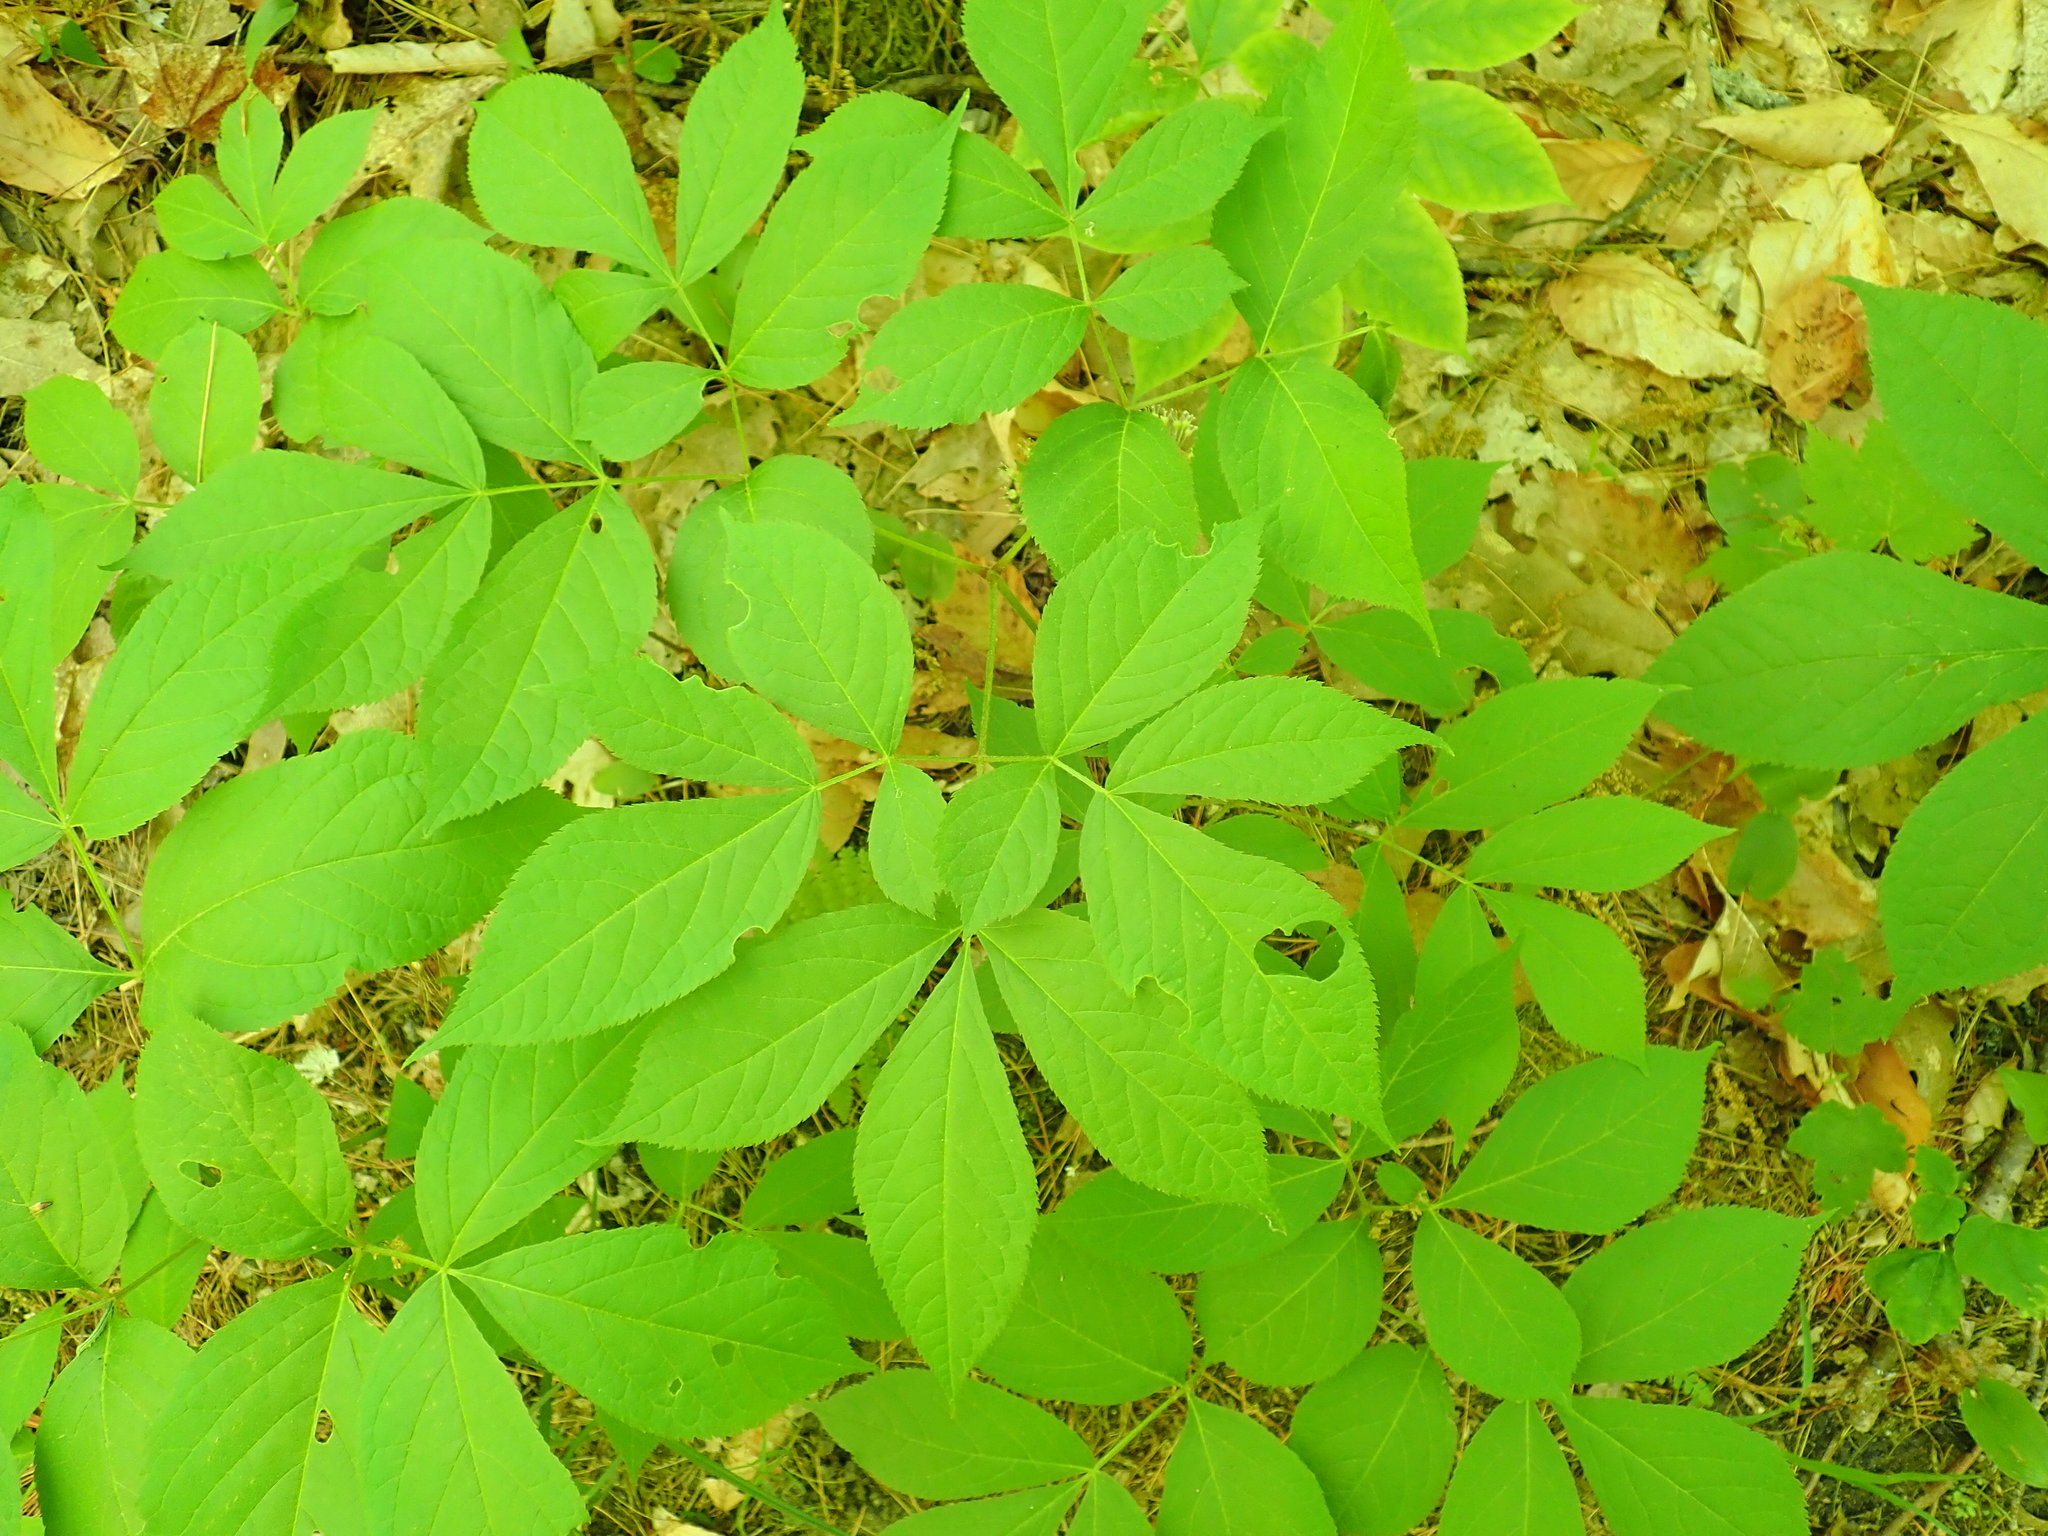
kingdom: Plantae
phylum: Tracheophyta
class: Magnoliopsida
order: Apiales
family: Araliaceae
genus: Aralia
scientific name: Aralia nudicaulis
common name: Wild sarsaparilla
